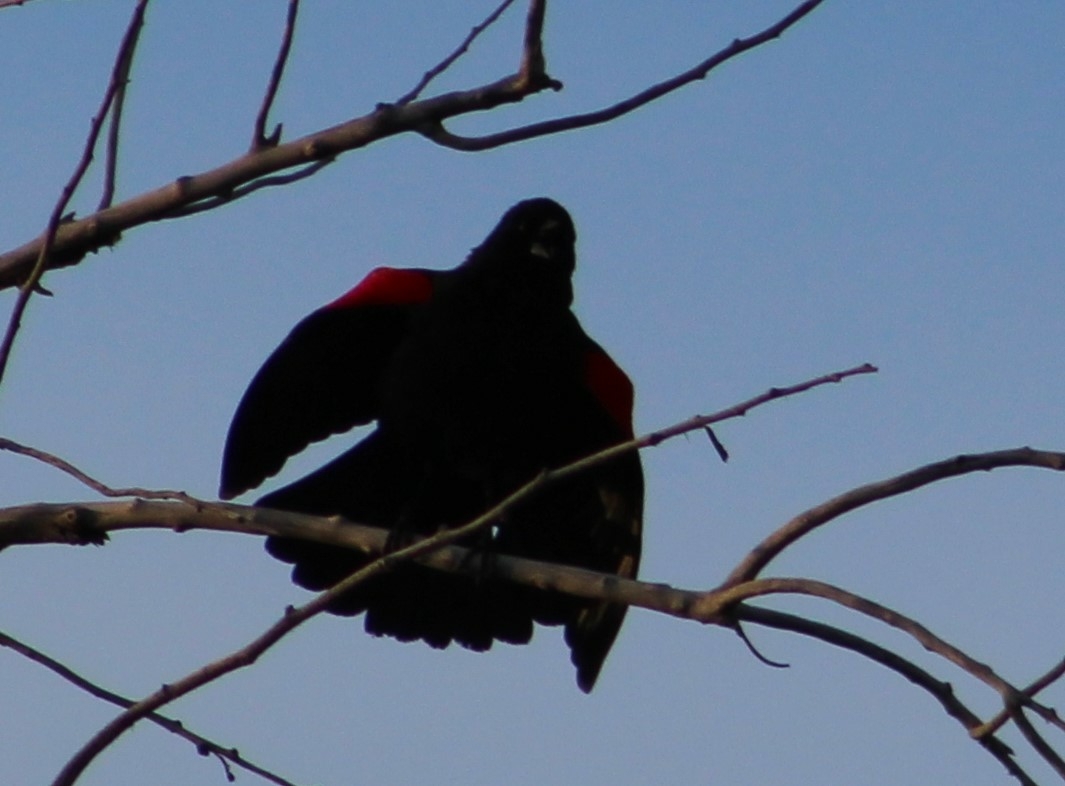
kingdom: Animalia
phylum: Chordata
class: Aves
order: Passeriformes
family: Icteridae
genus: Agelaius
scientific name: Agelaius phoeniceus
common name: Red-winged blackbird
